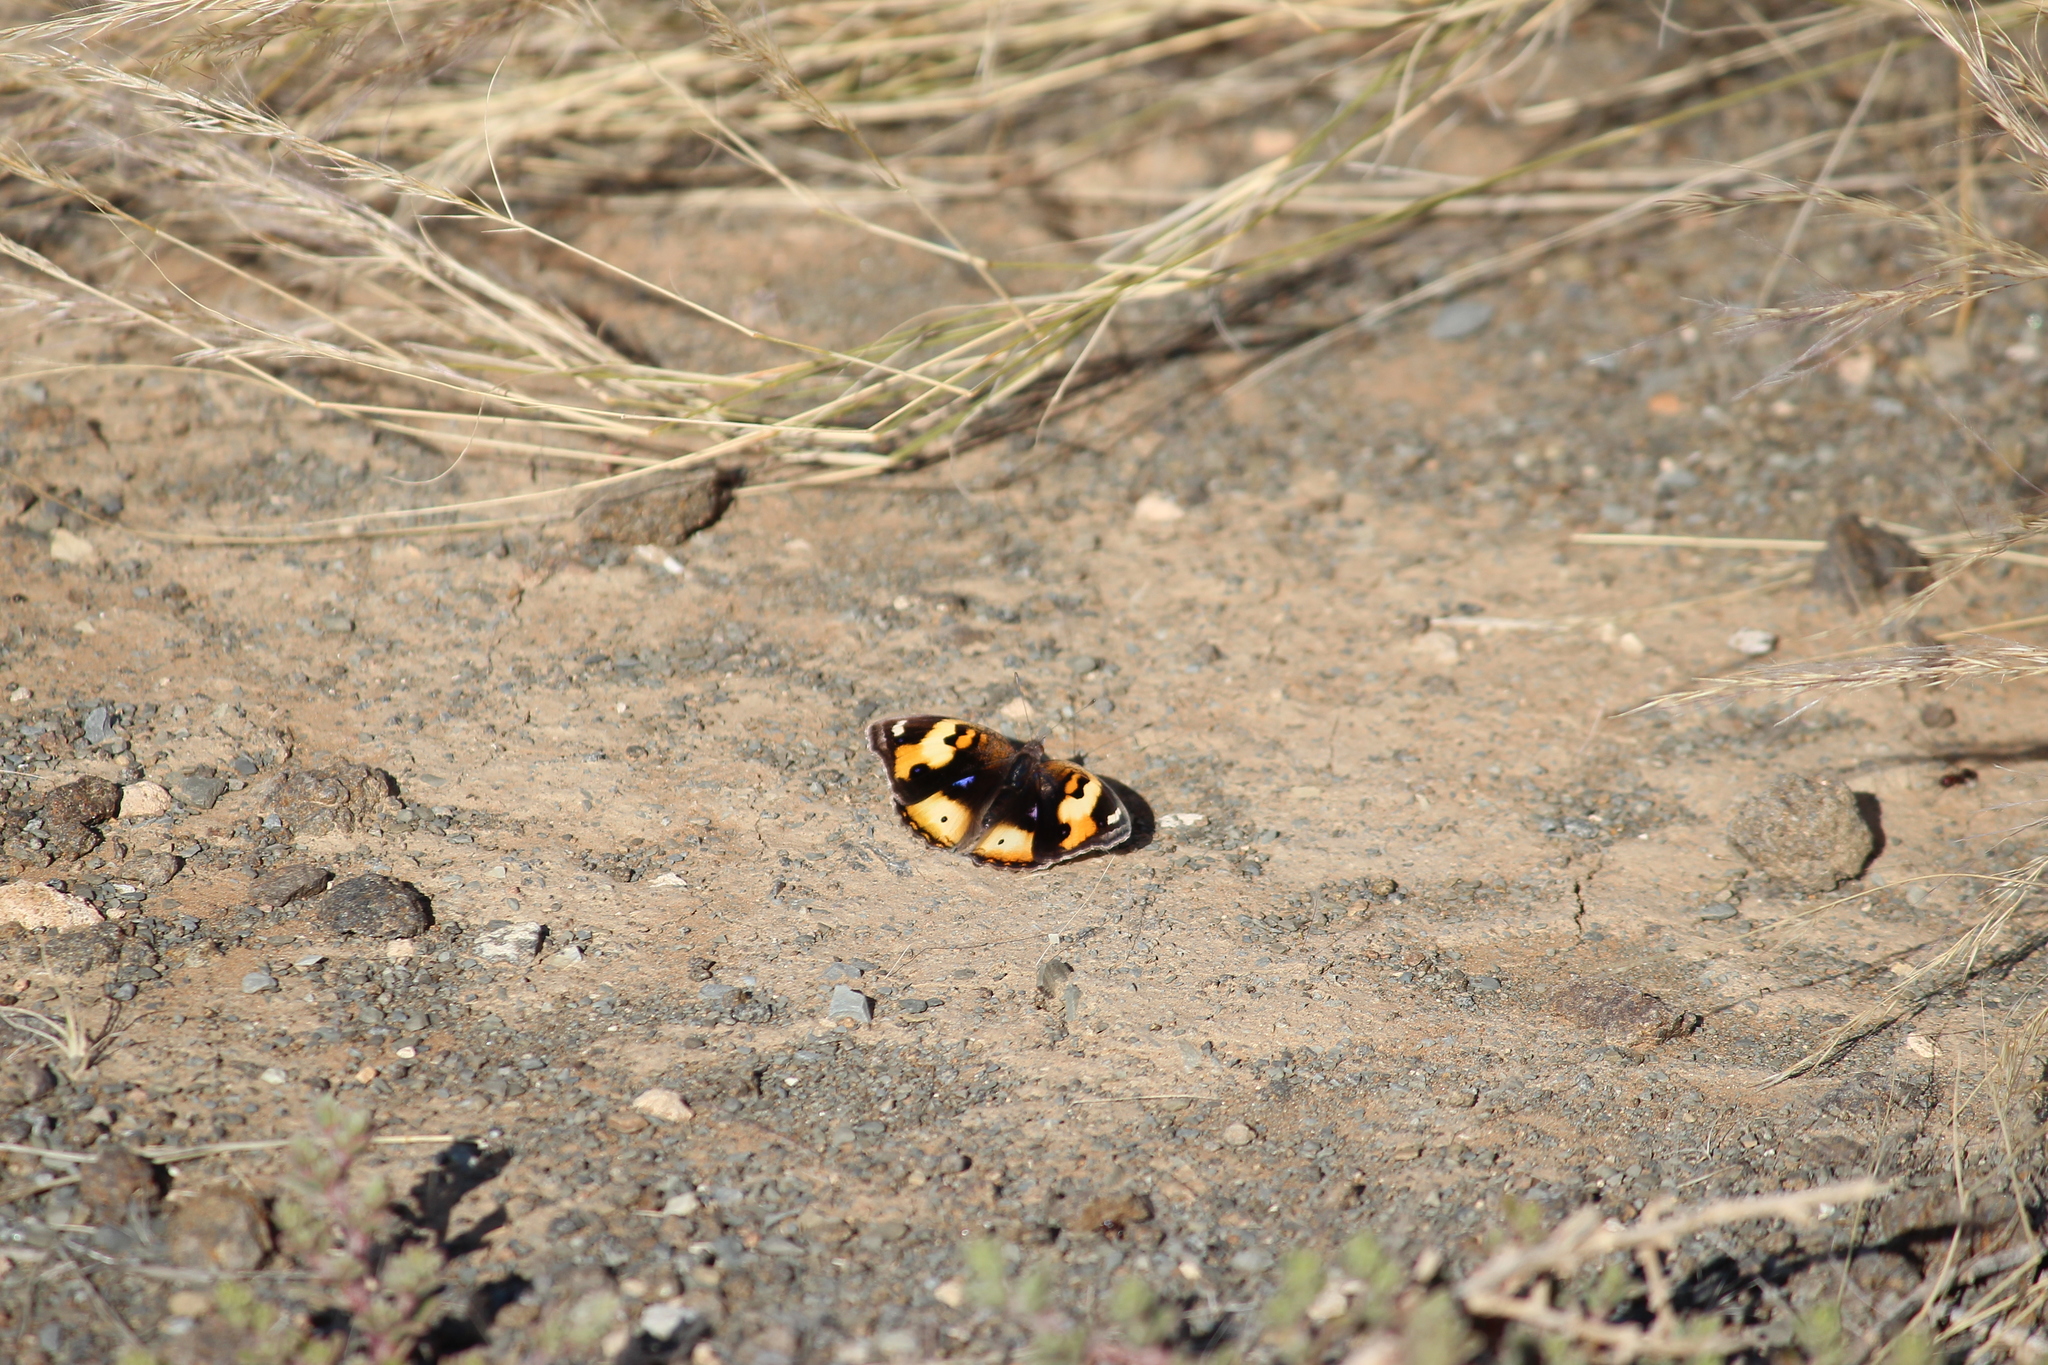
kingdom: Animalia
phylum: Arthropoda
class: Insecta
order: Lepidoptera
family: Nymphalidae
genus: Junonia
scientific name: Junonia hierta
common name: Yellow pansy
